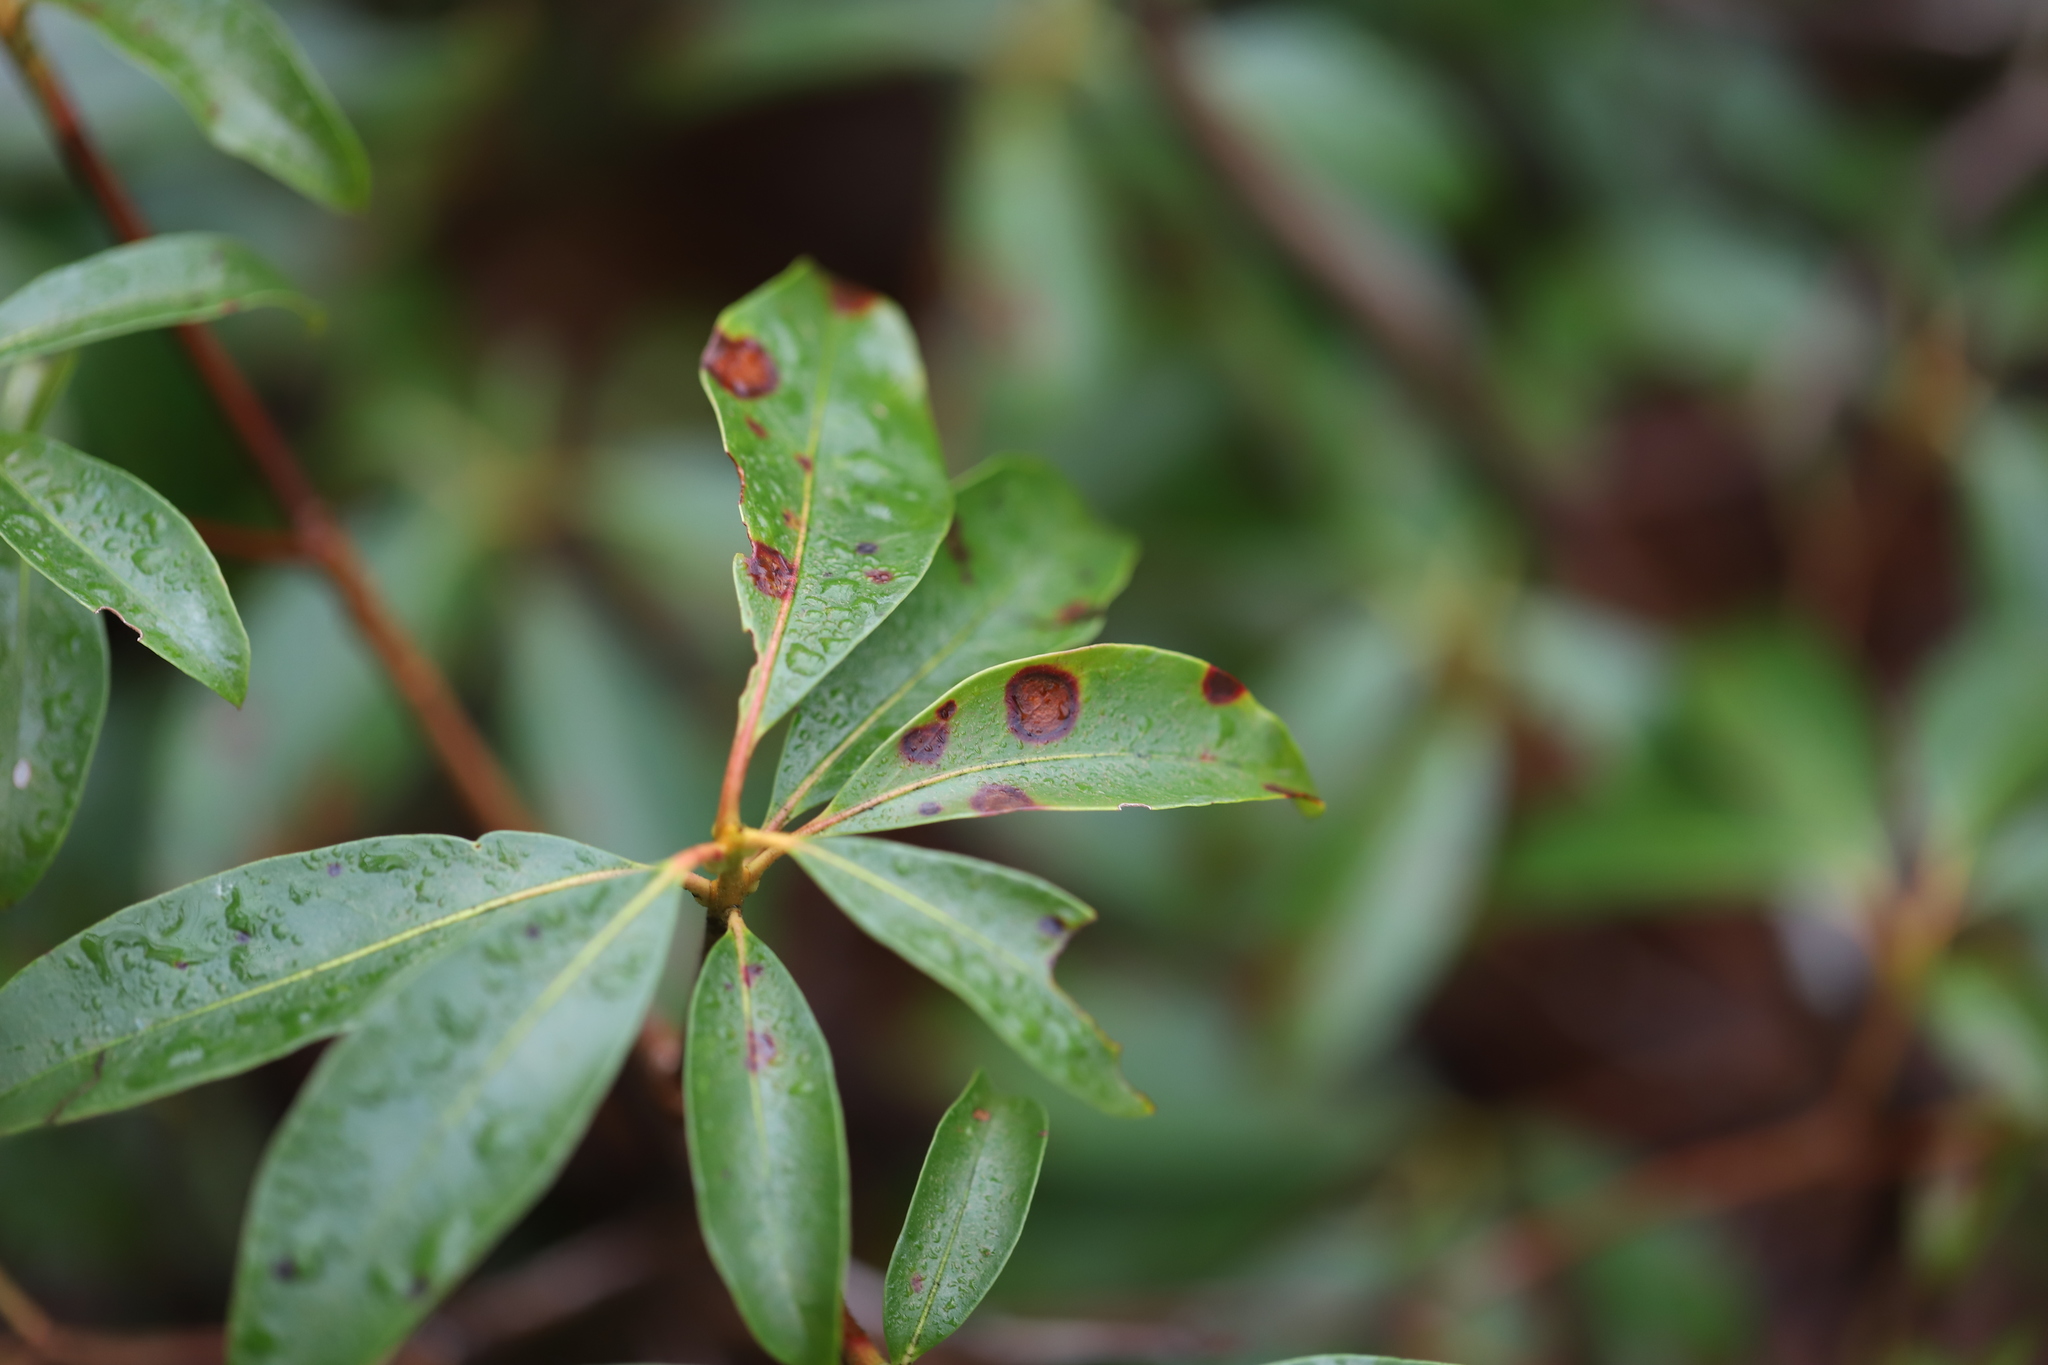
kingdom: Fungi
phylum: Ascomycota
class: Sordariomycetes
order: Diaporthales
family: Diaporthaceae
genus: Diaporthe
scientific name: Diaporthe kalmiae
